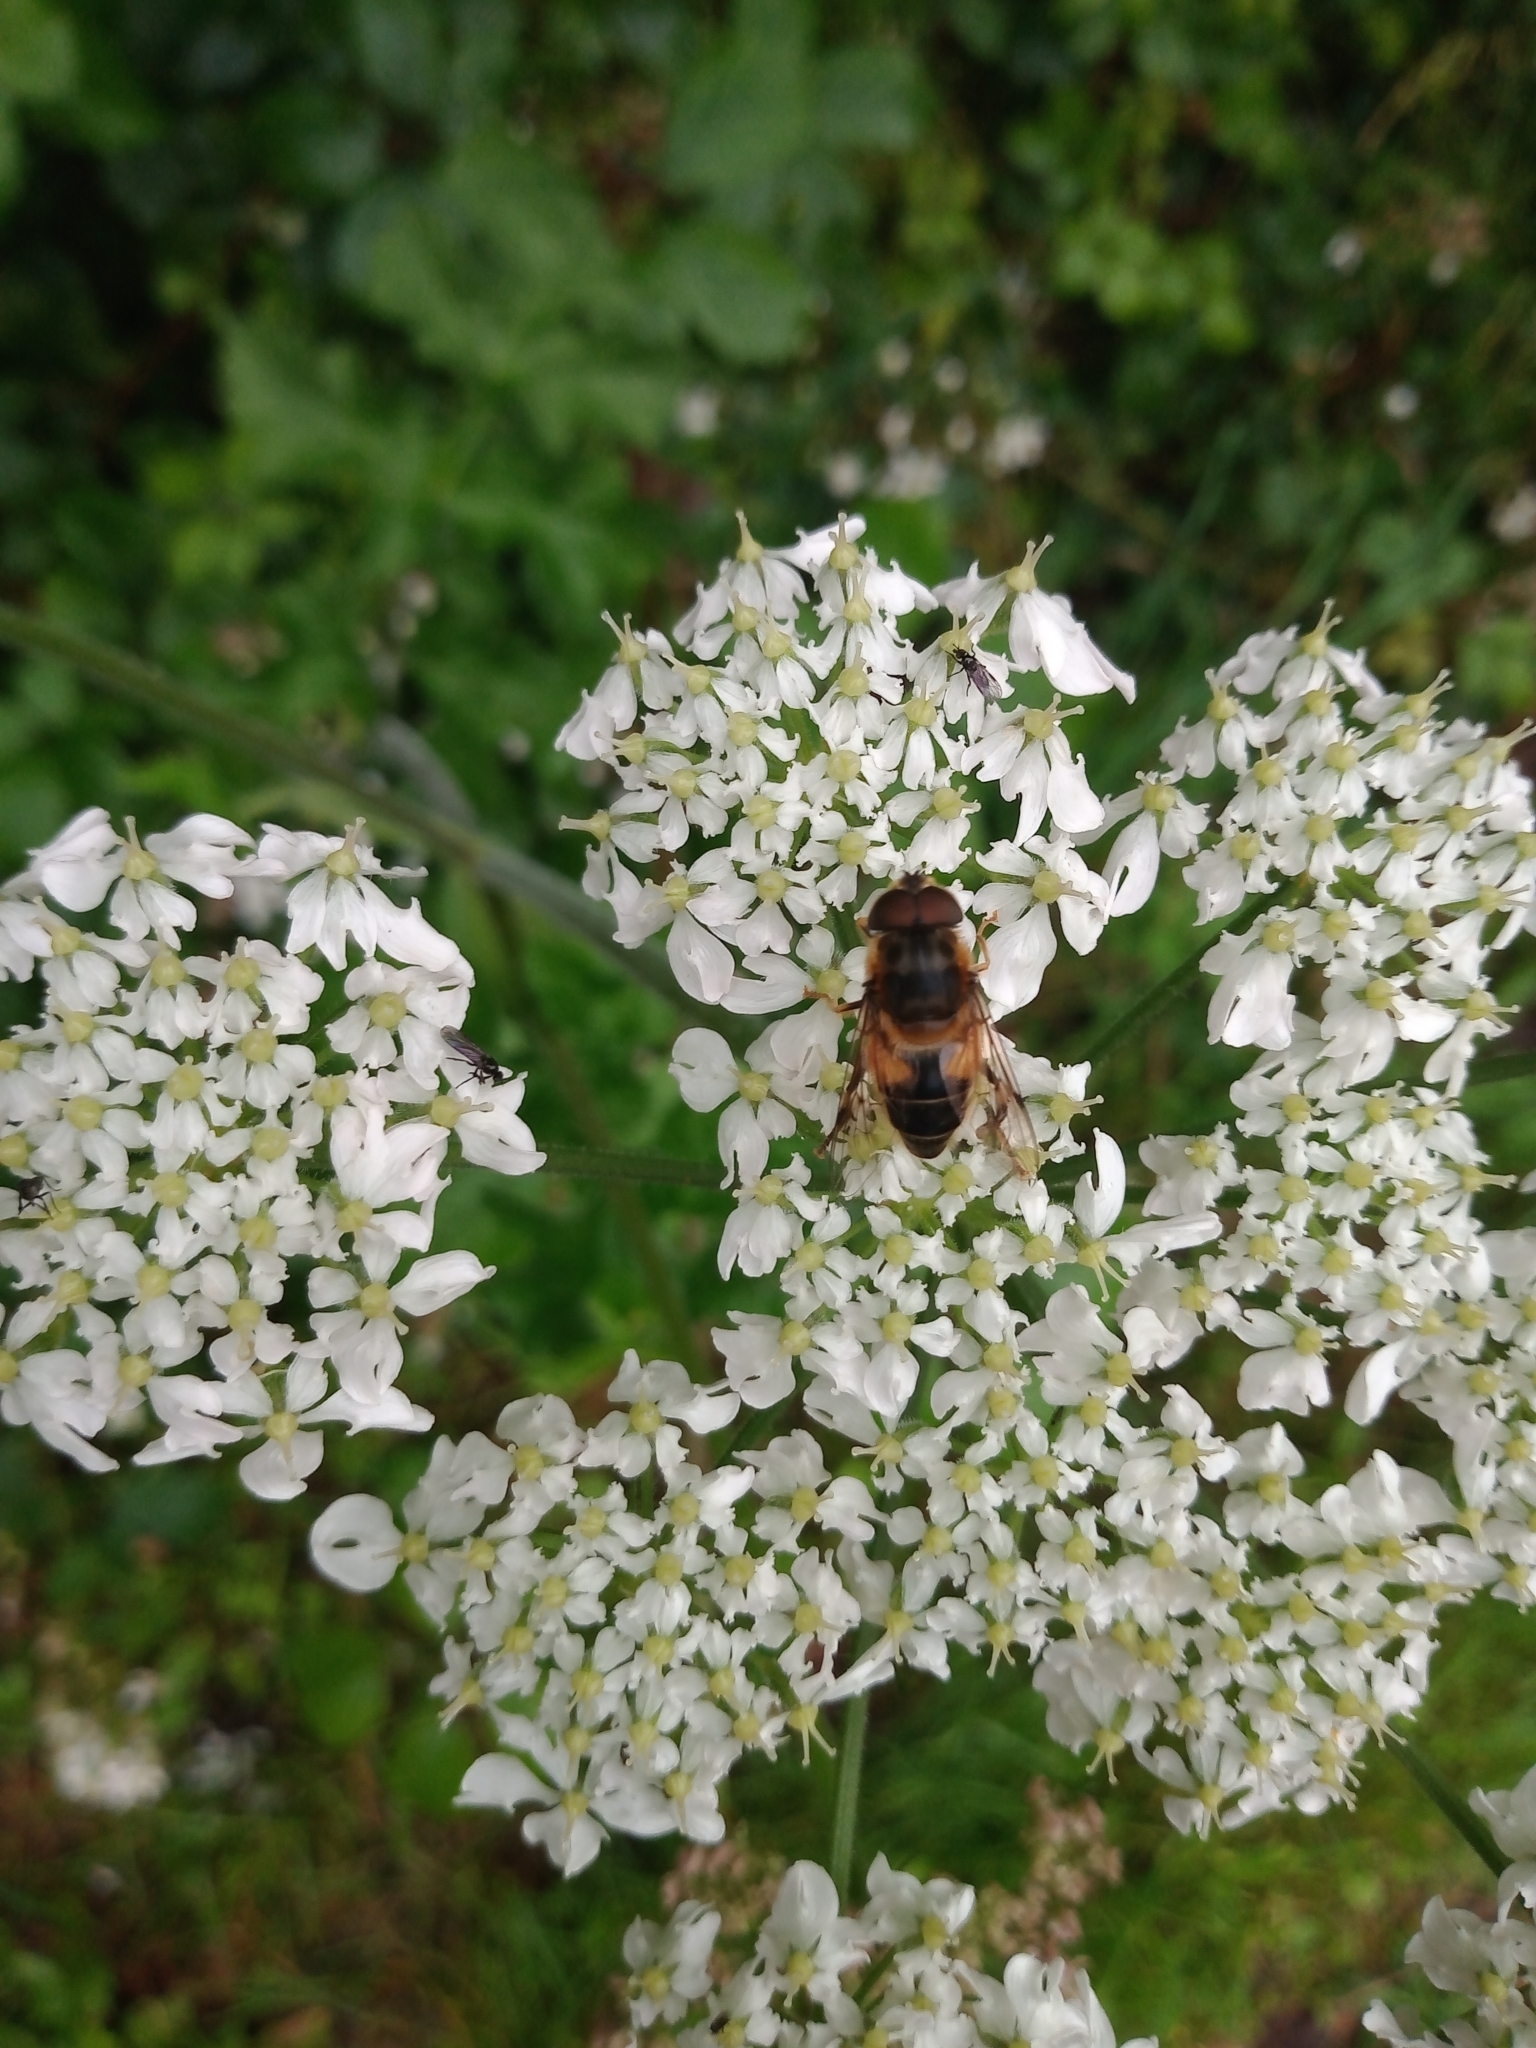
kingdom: Animalia
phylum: Arthropoda
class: Insecta
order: Diptera
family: Syrphidae
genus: Eristalis
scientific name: Eristalis pertinax
